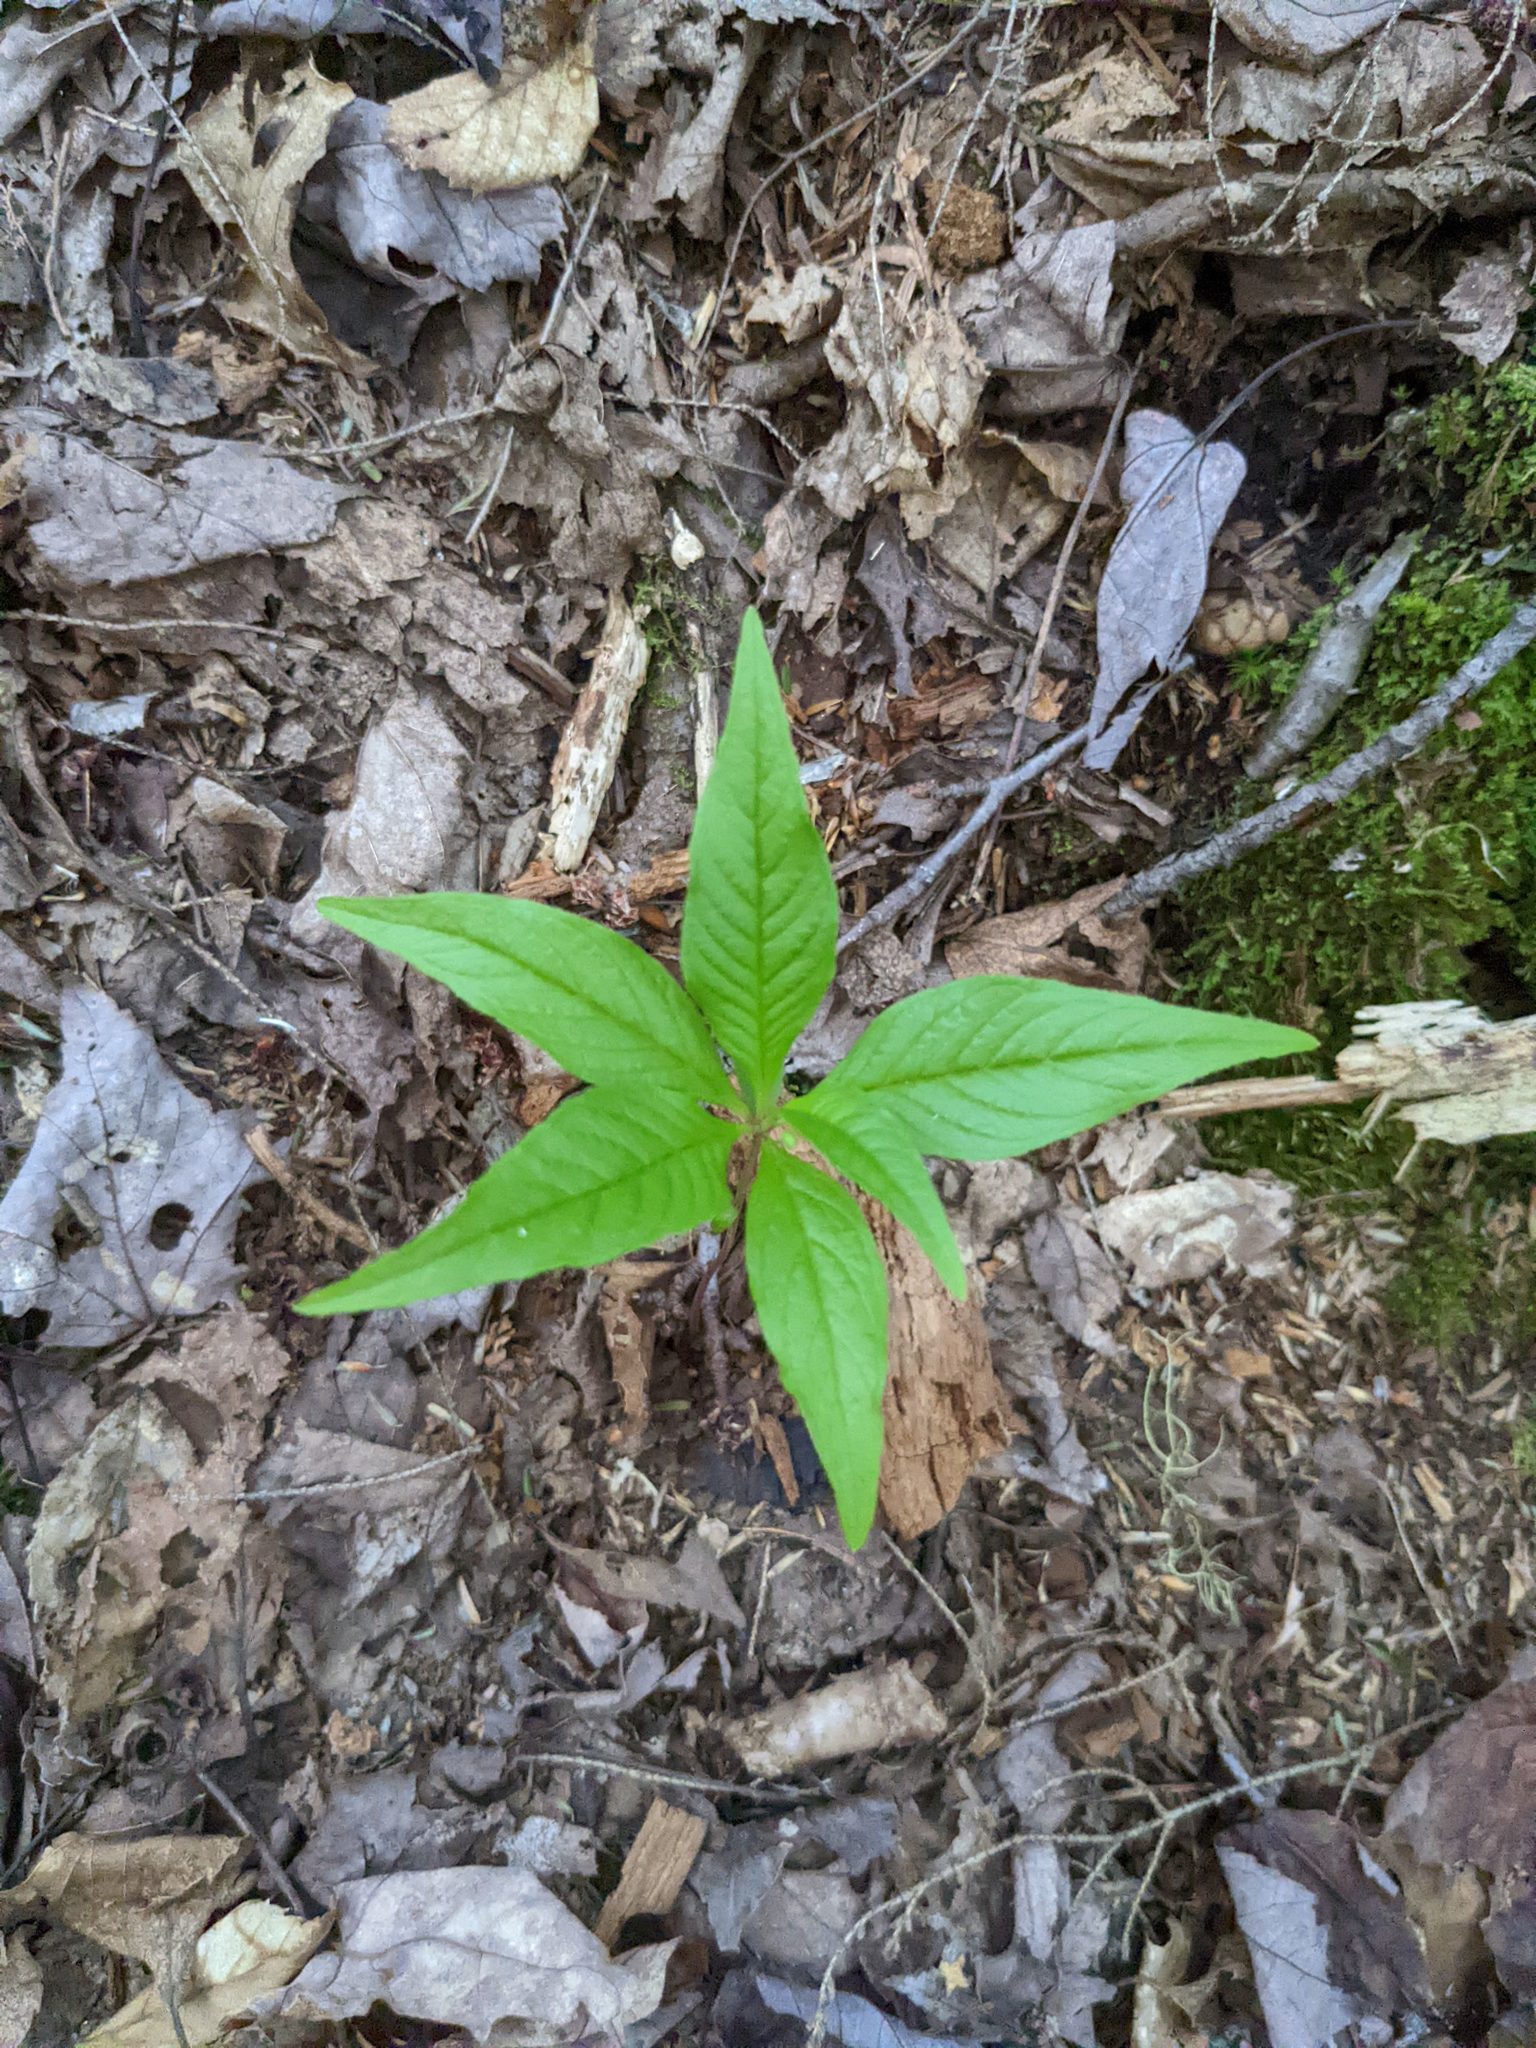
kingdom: Plantae
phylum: Tracheophyta
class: Magnoliopsida
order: Ericales
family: Primulaceae
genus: Lysimachia
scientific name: Lysimachia borealis
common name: American starflower
